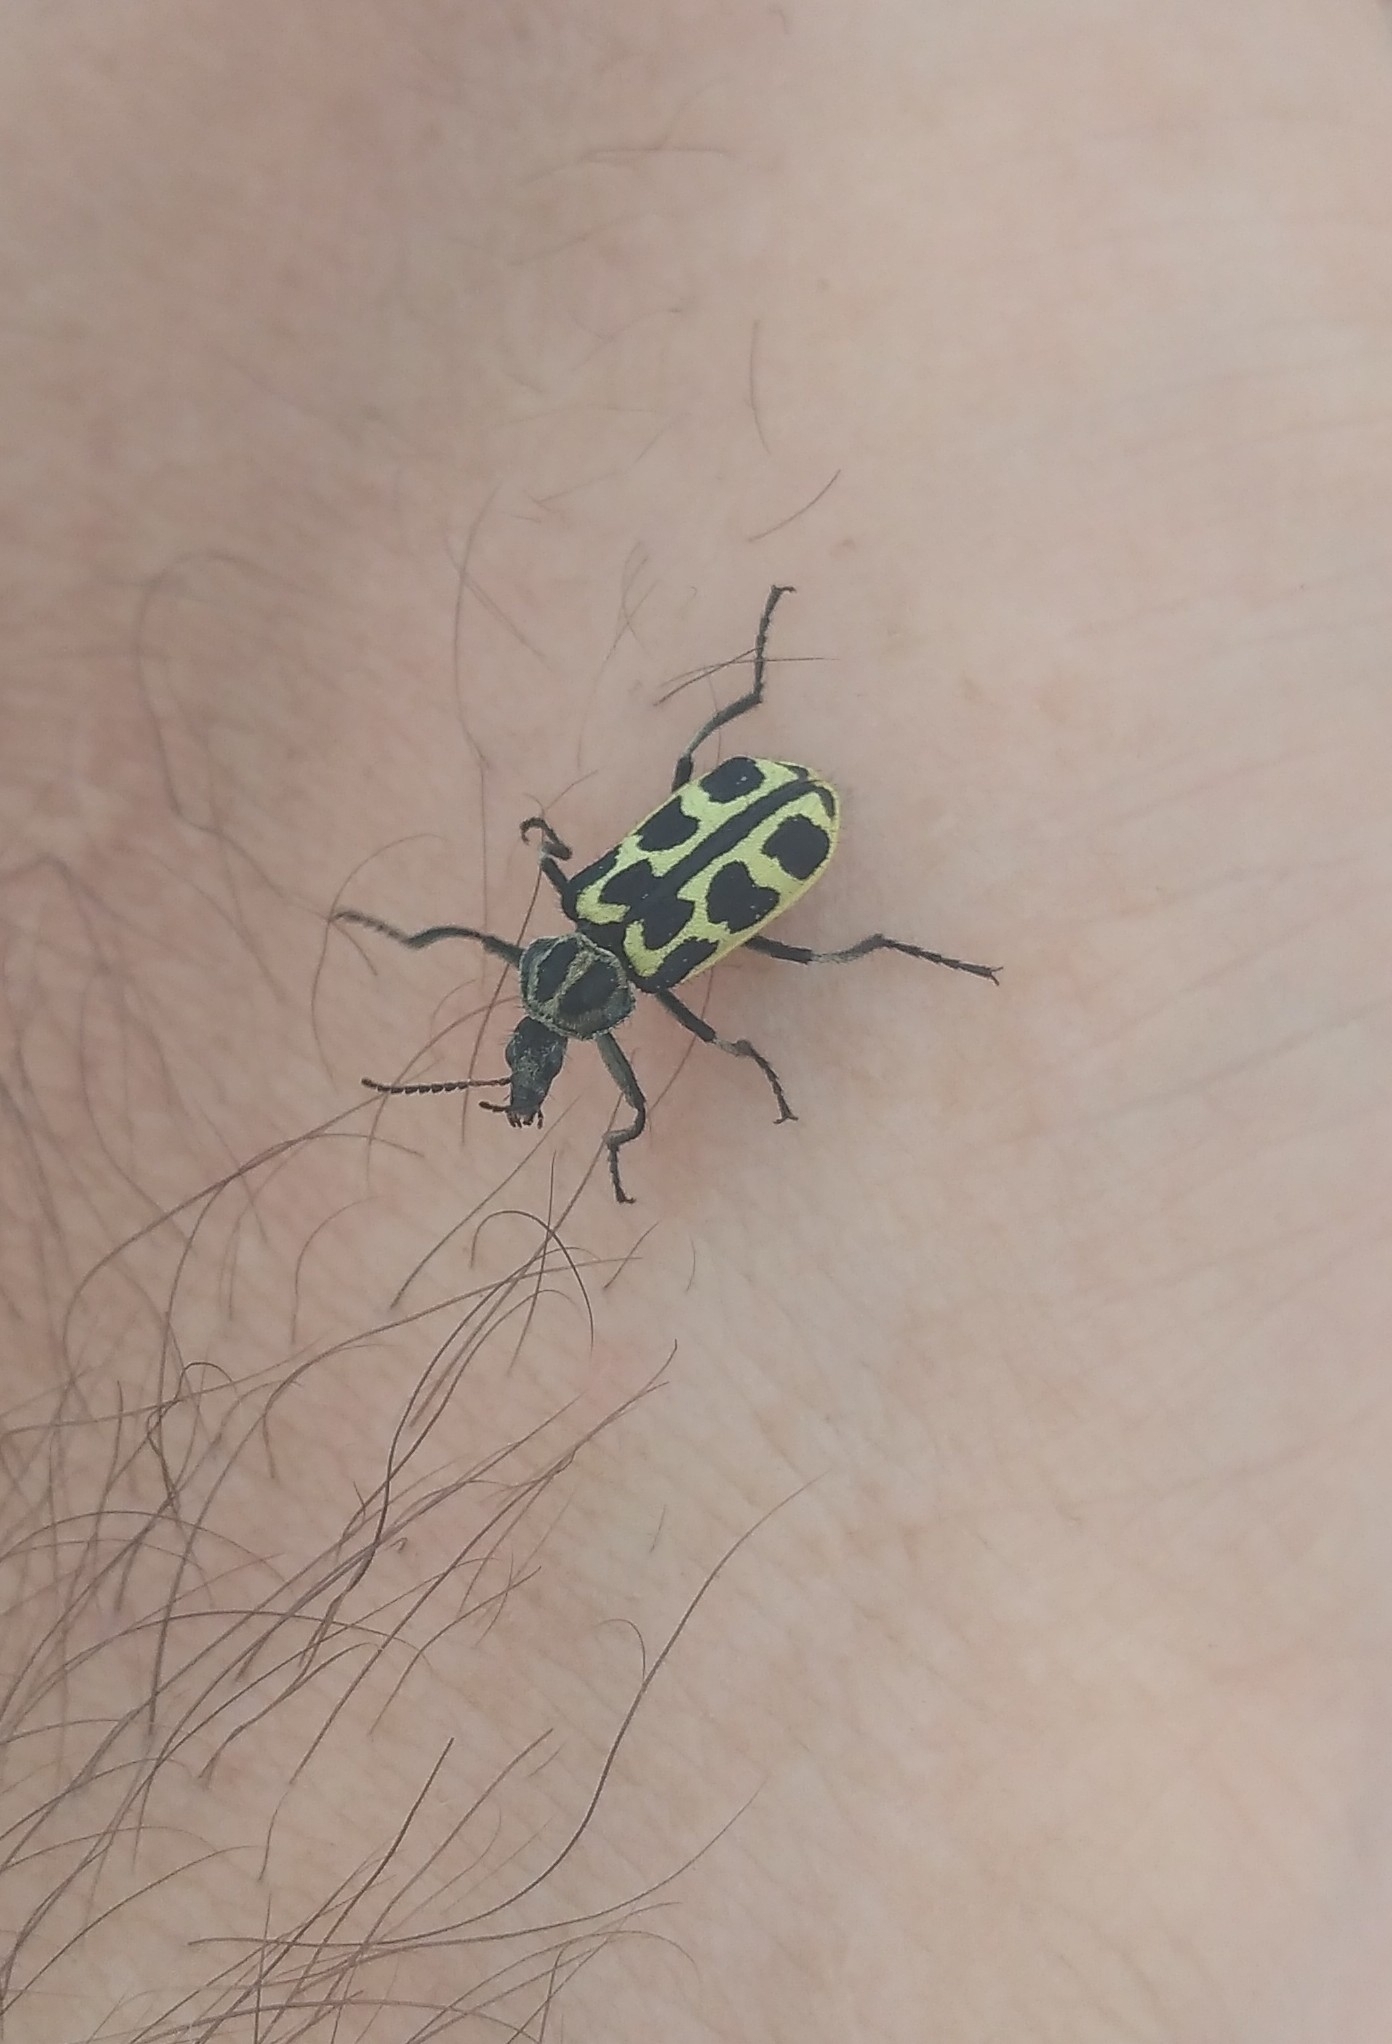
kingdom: Animalia
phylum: Arthropoda
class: Insecta
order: Coleoptera
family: Melyridae
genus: Astylus
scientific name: Astylus atromaculatus
